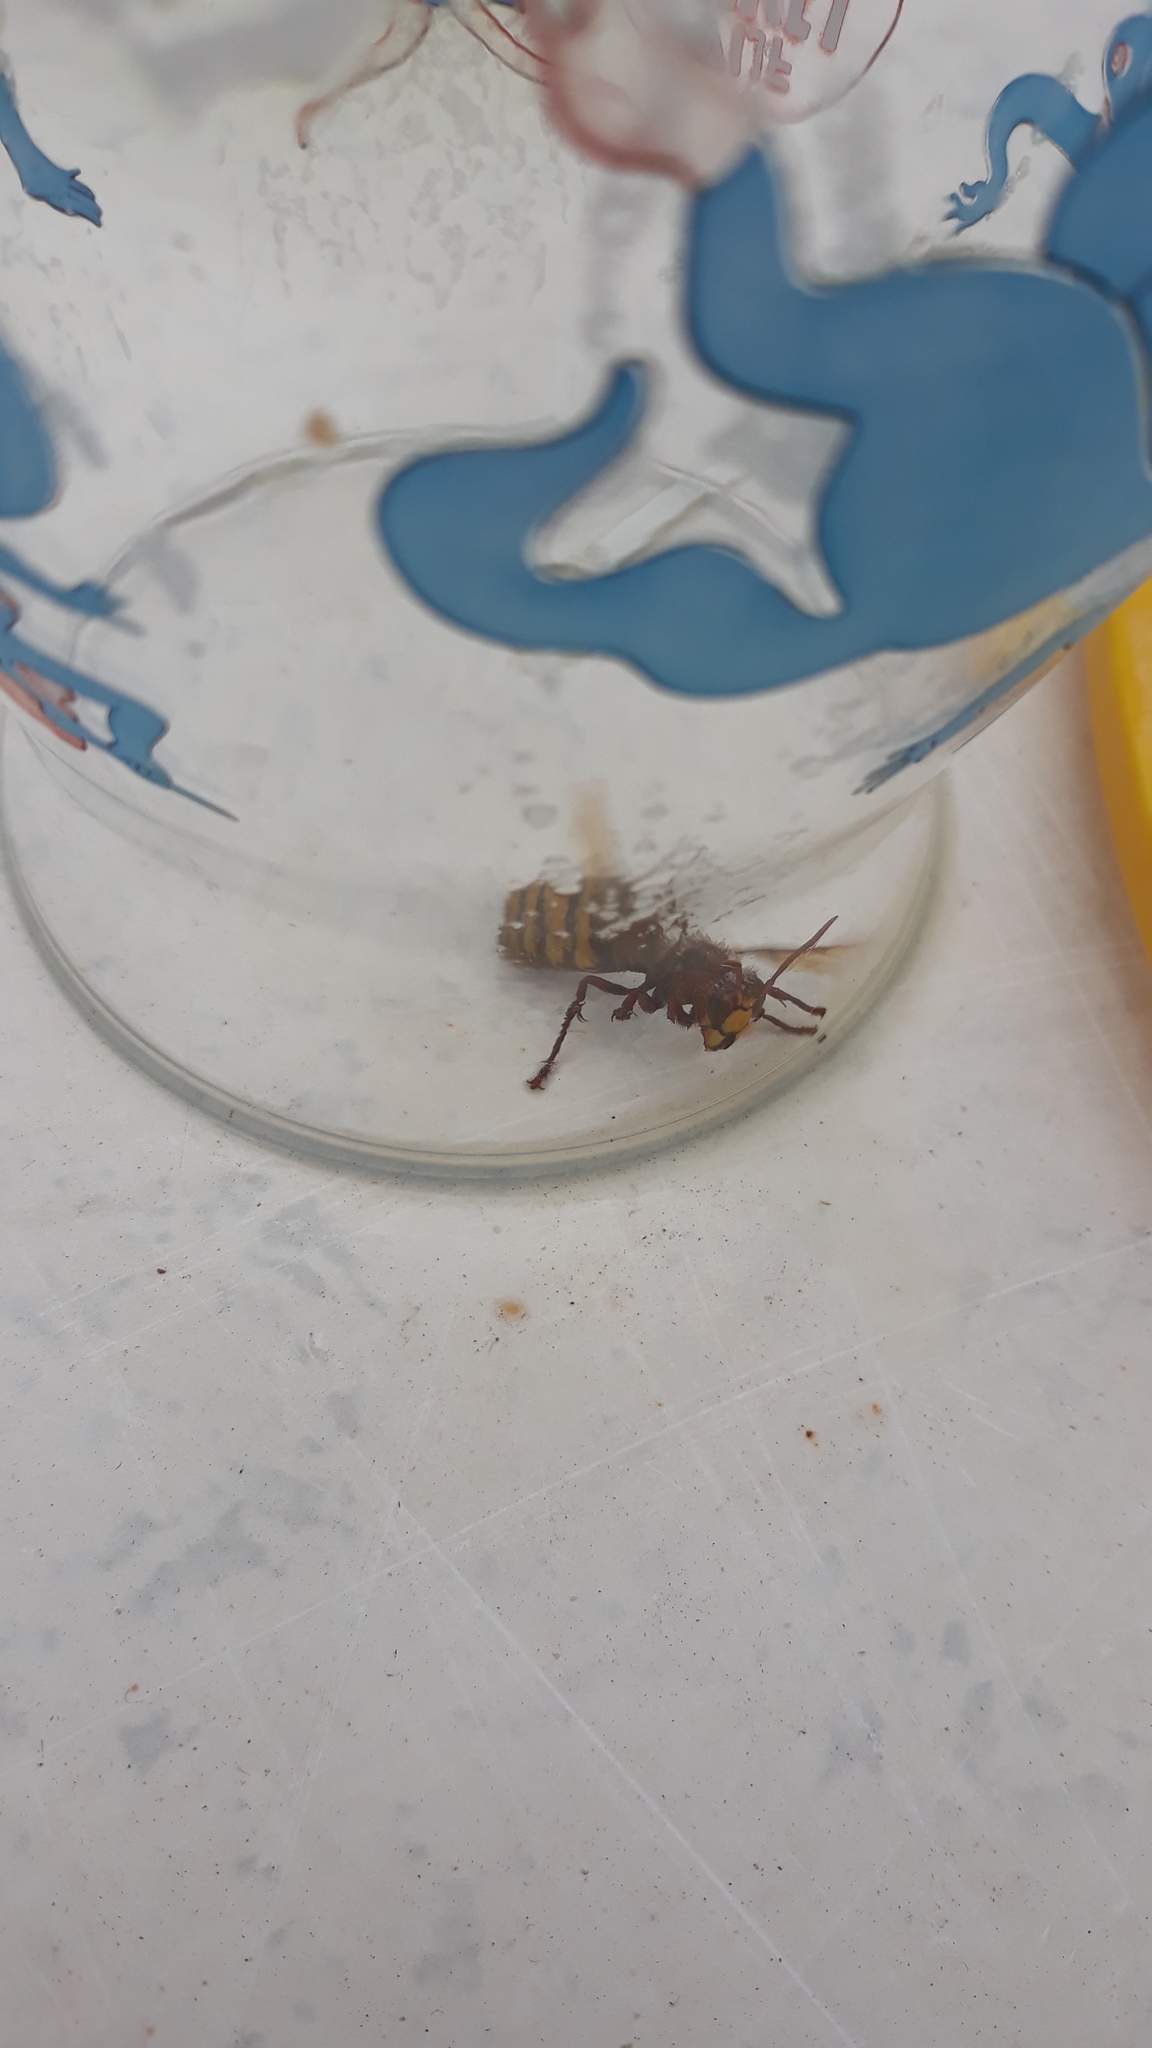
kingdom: Animalia
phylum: Arthropoda
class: Insecta
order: Hymenoptera
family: Vespidae
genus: Vespa
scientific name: Vespa crabro
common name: Hornet
